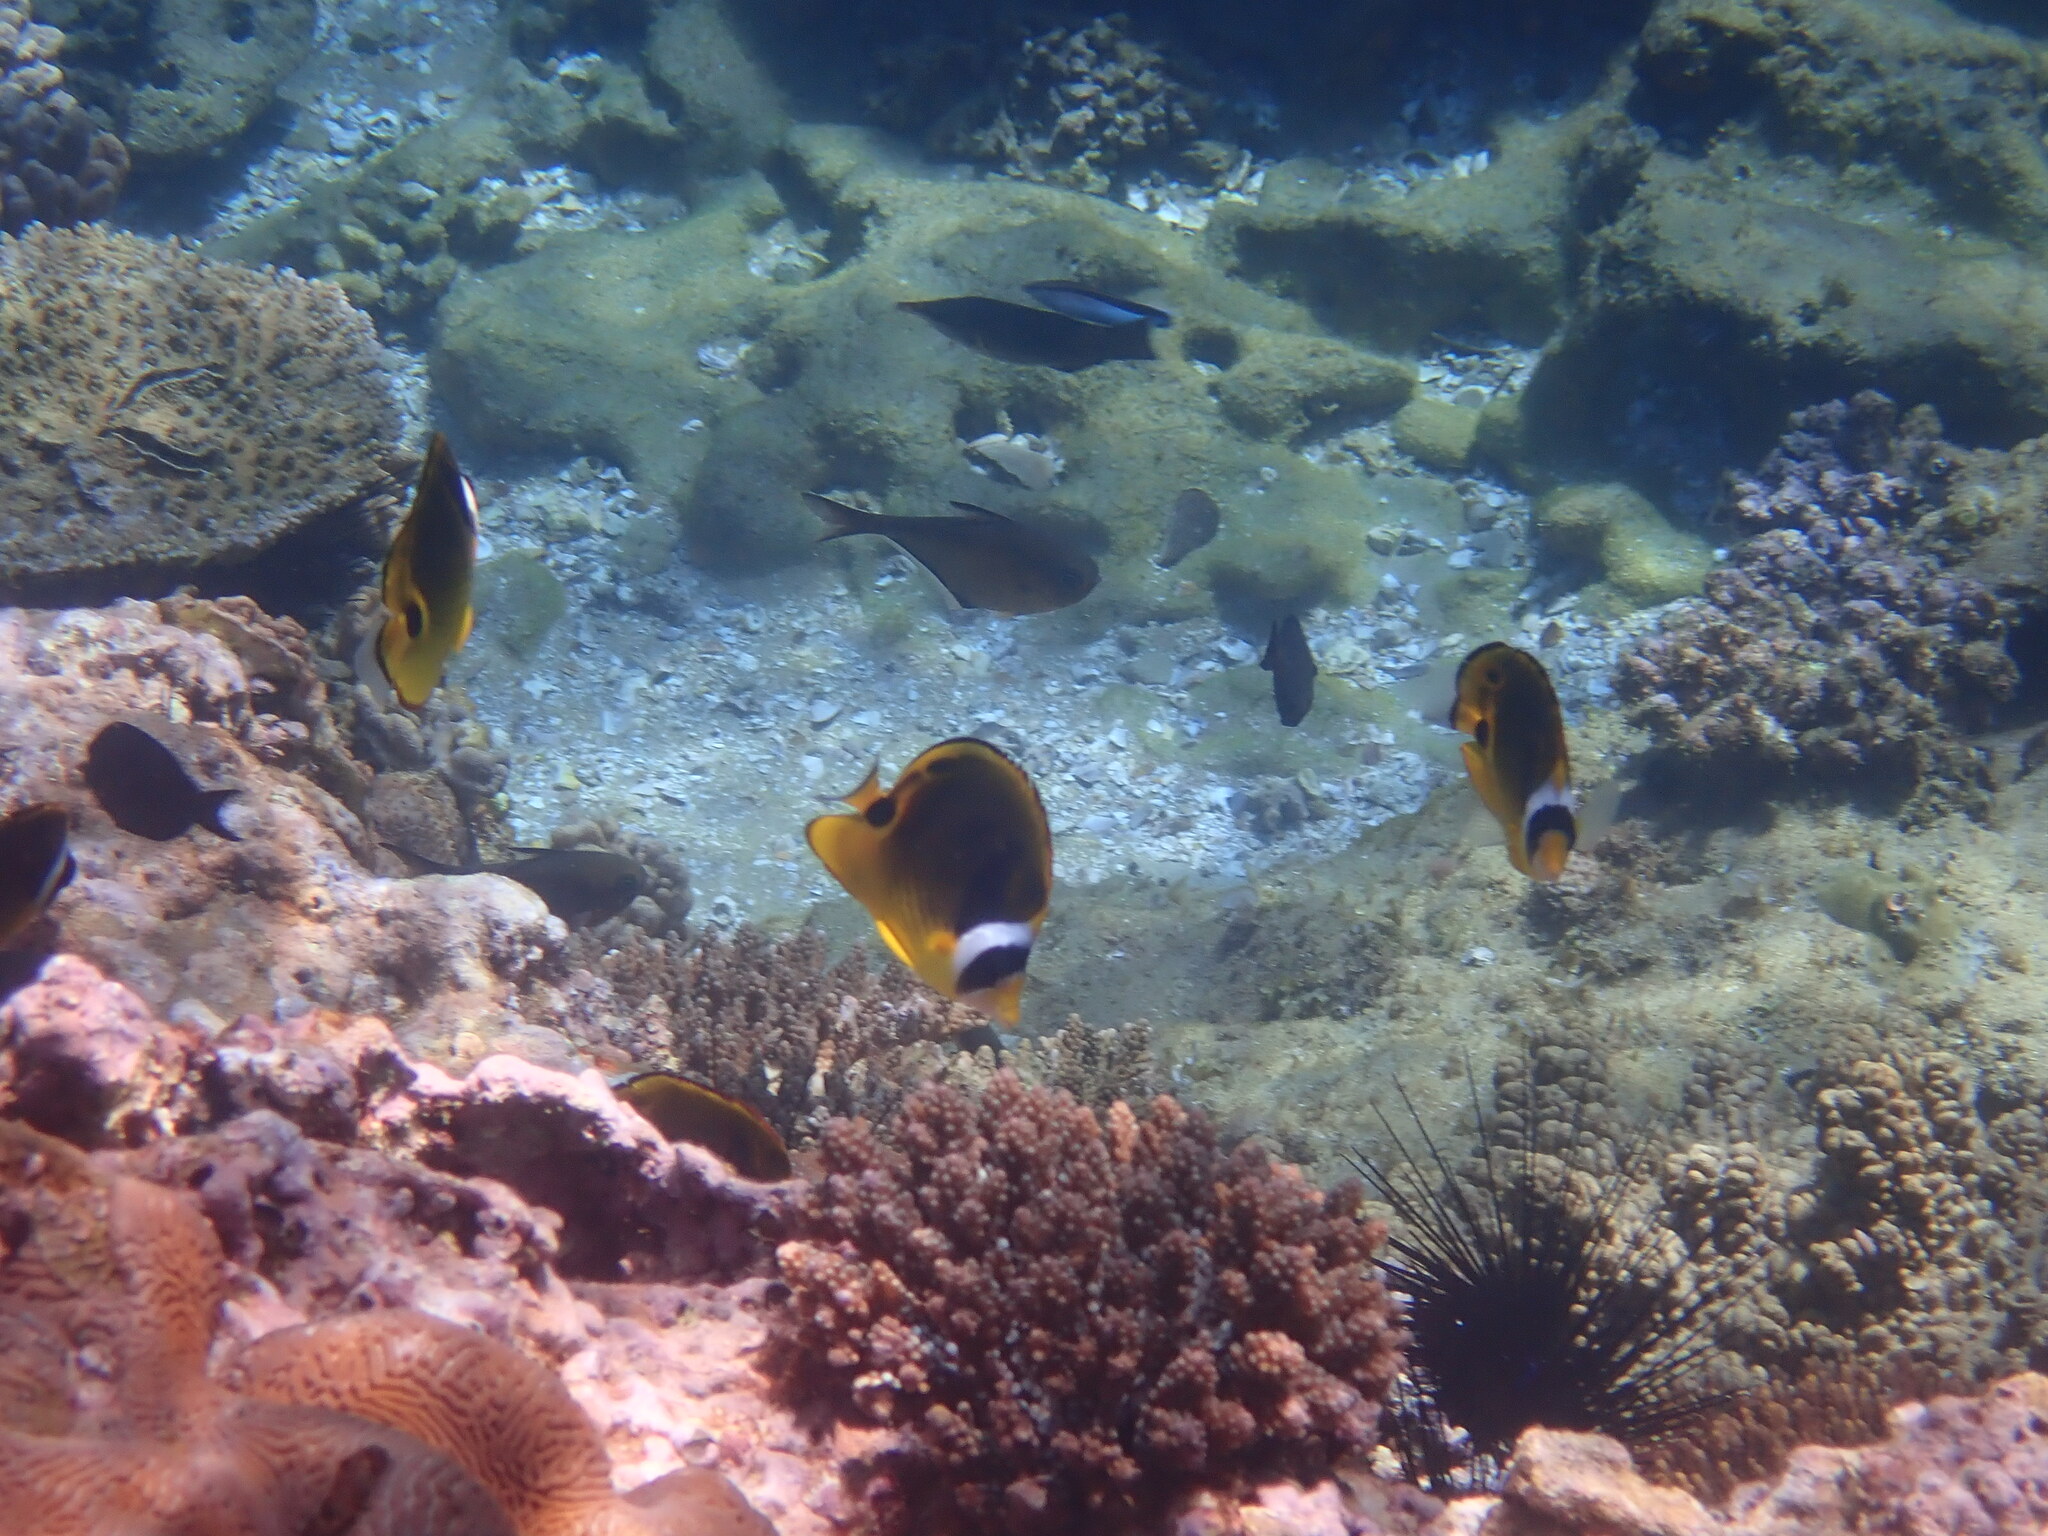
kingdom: Animalia
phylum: Chordata
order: Perciformes
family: Chaetodontidae
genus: Chaetodon
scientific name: Chaetodon lunula
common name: Raccoon butterflyfish
